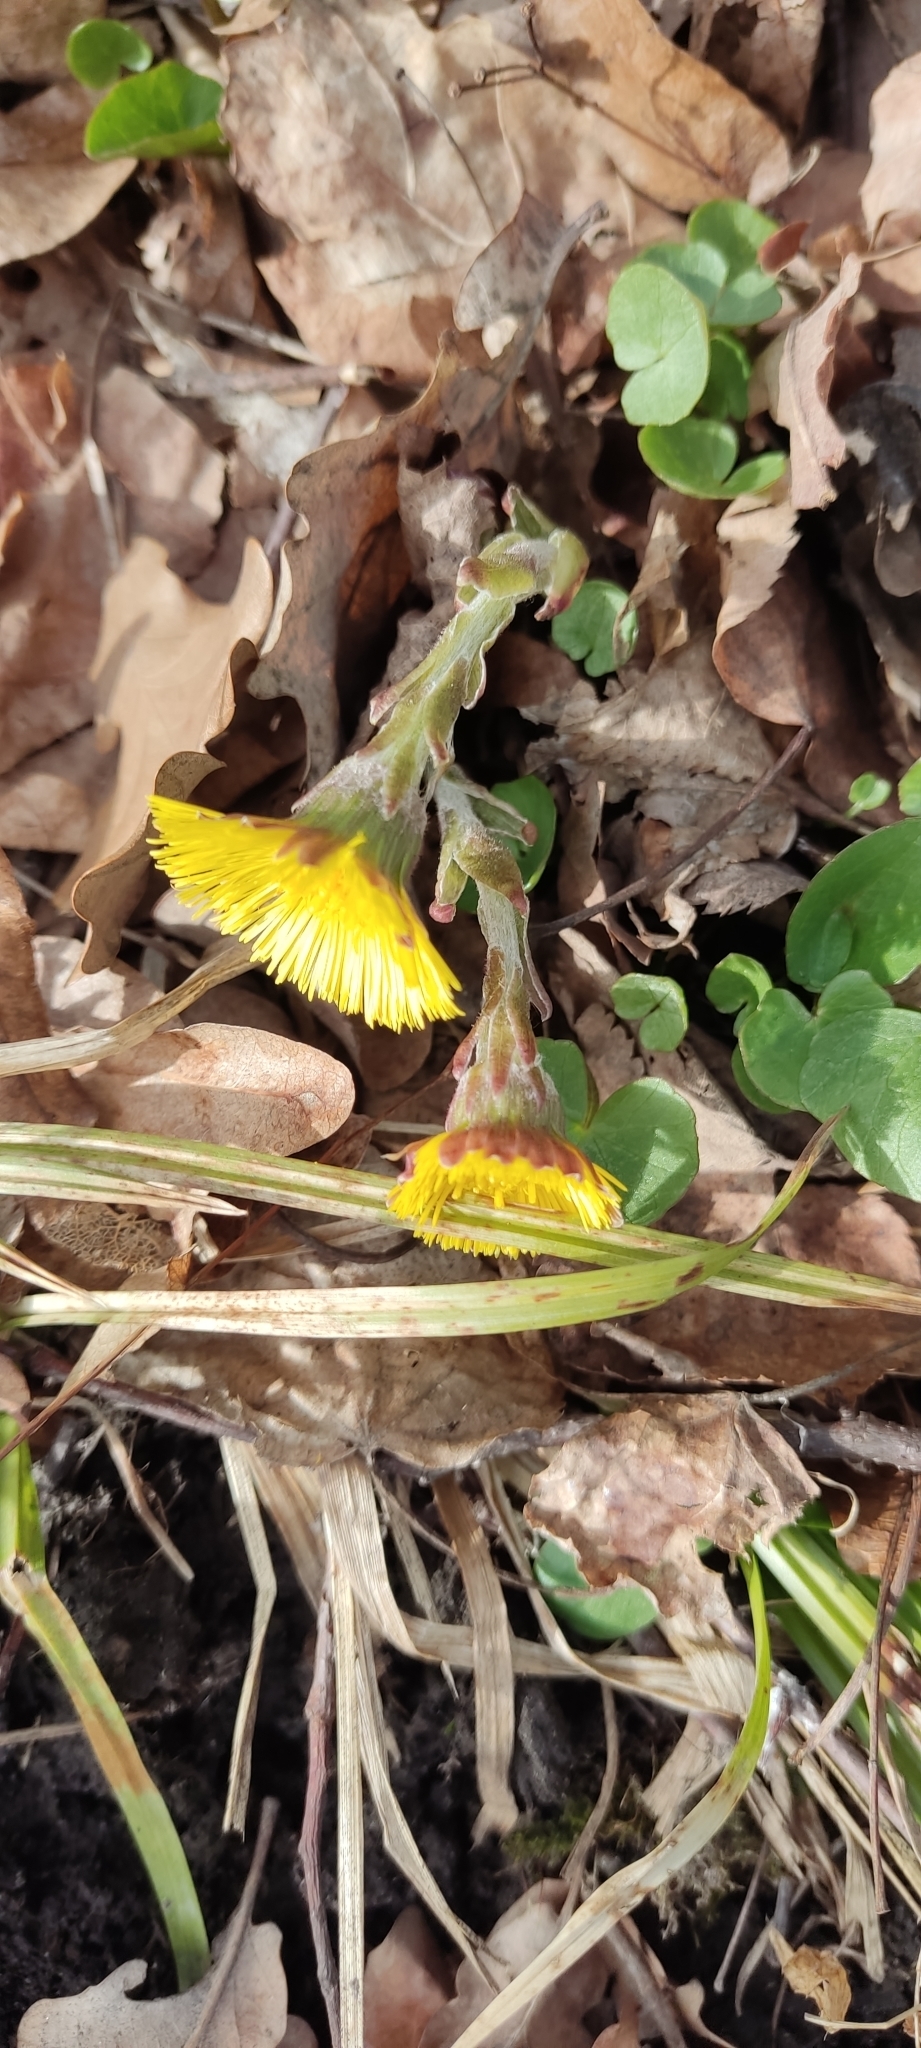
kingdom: Plantae
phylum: Tracheophyta
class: Magnoliopsida
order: Asterales
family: Asteraceae
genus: Tussilago
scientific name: Tussilago farfara
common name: Coltsfoot
